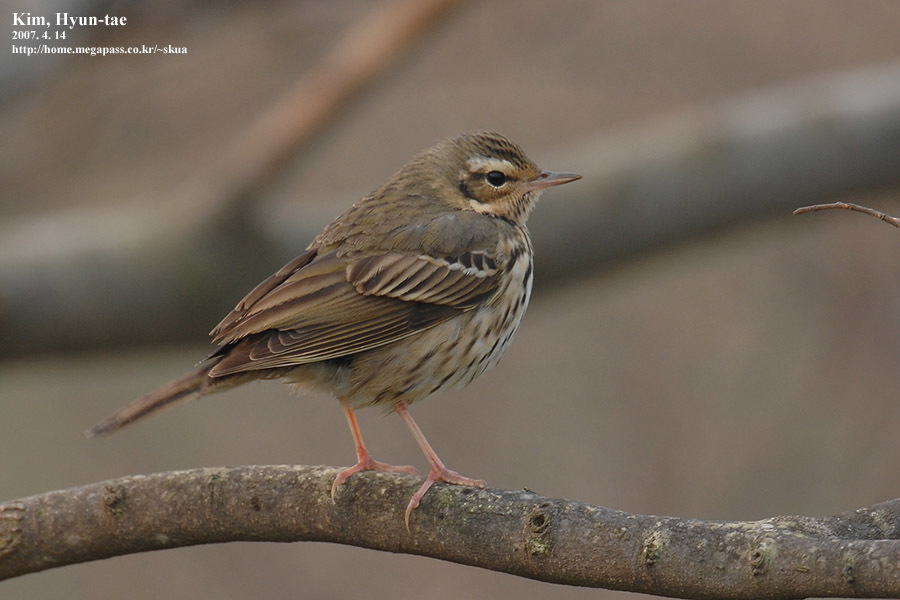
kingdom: Animalia
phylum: Chordata
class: Aves
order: Passeriformes
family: Motacillidae
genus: Anthus
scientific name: Anthus hodgsoni
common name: Olive-backed pipit
